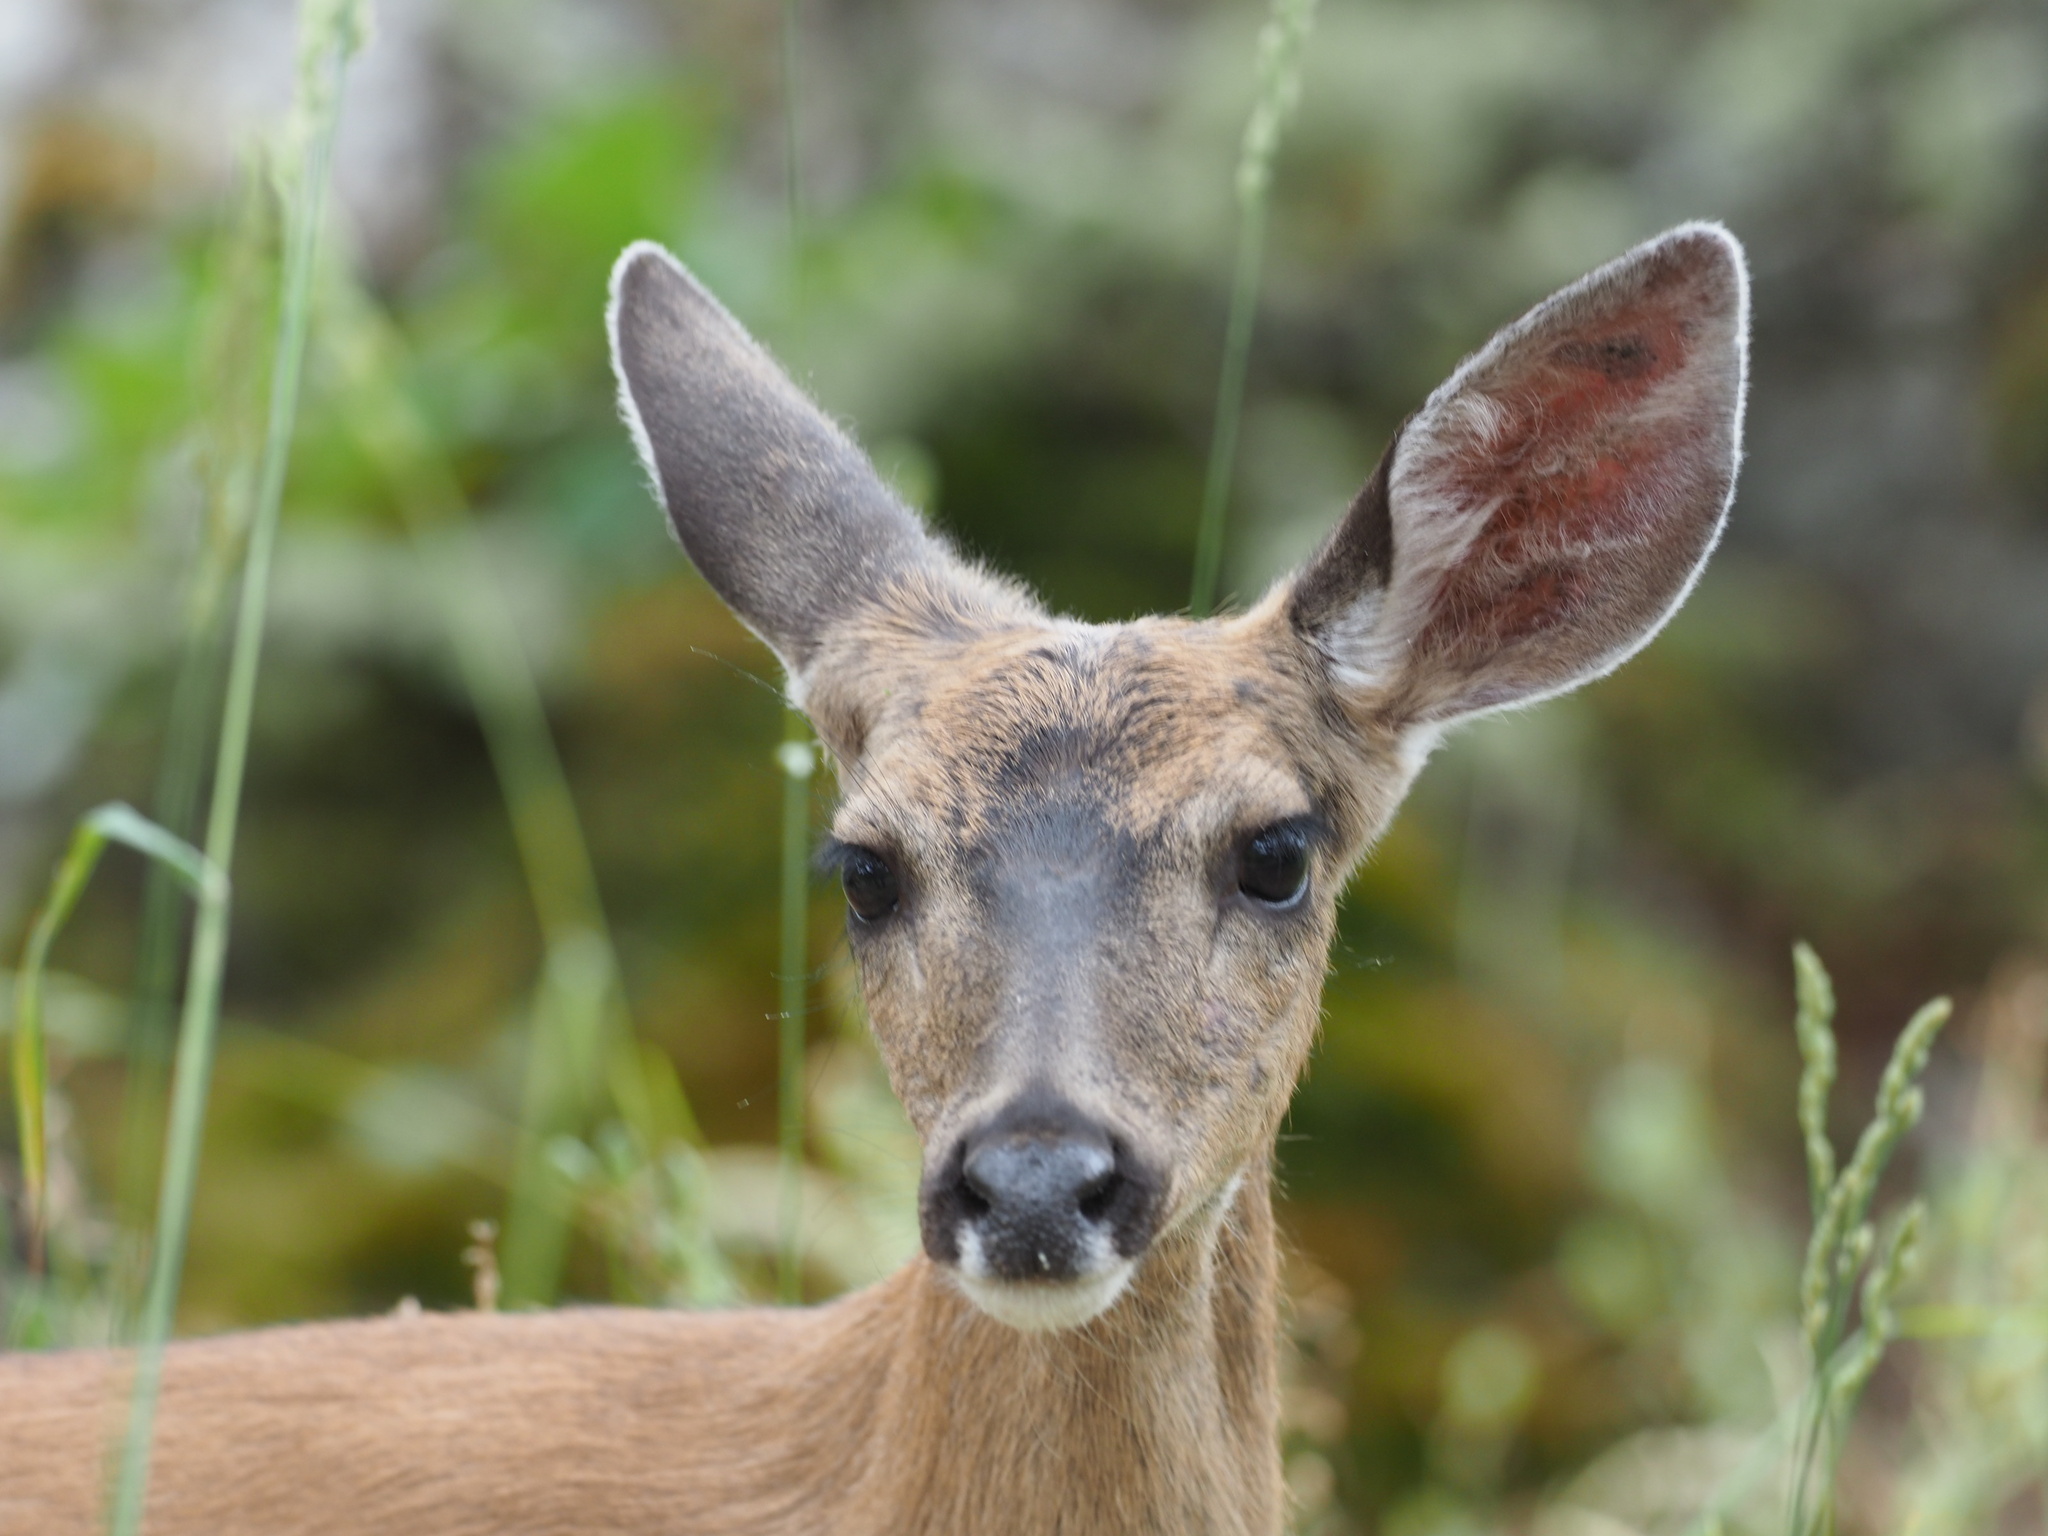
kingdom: Animalia
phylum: Chordata
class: Mammalia
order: Artiodactyla
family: Cervidae
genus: Odocoileus
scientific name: Odocoileus hemionus
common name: Mule deer
